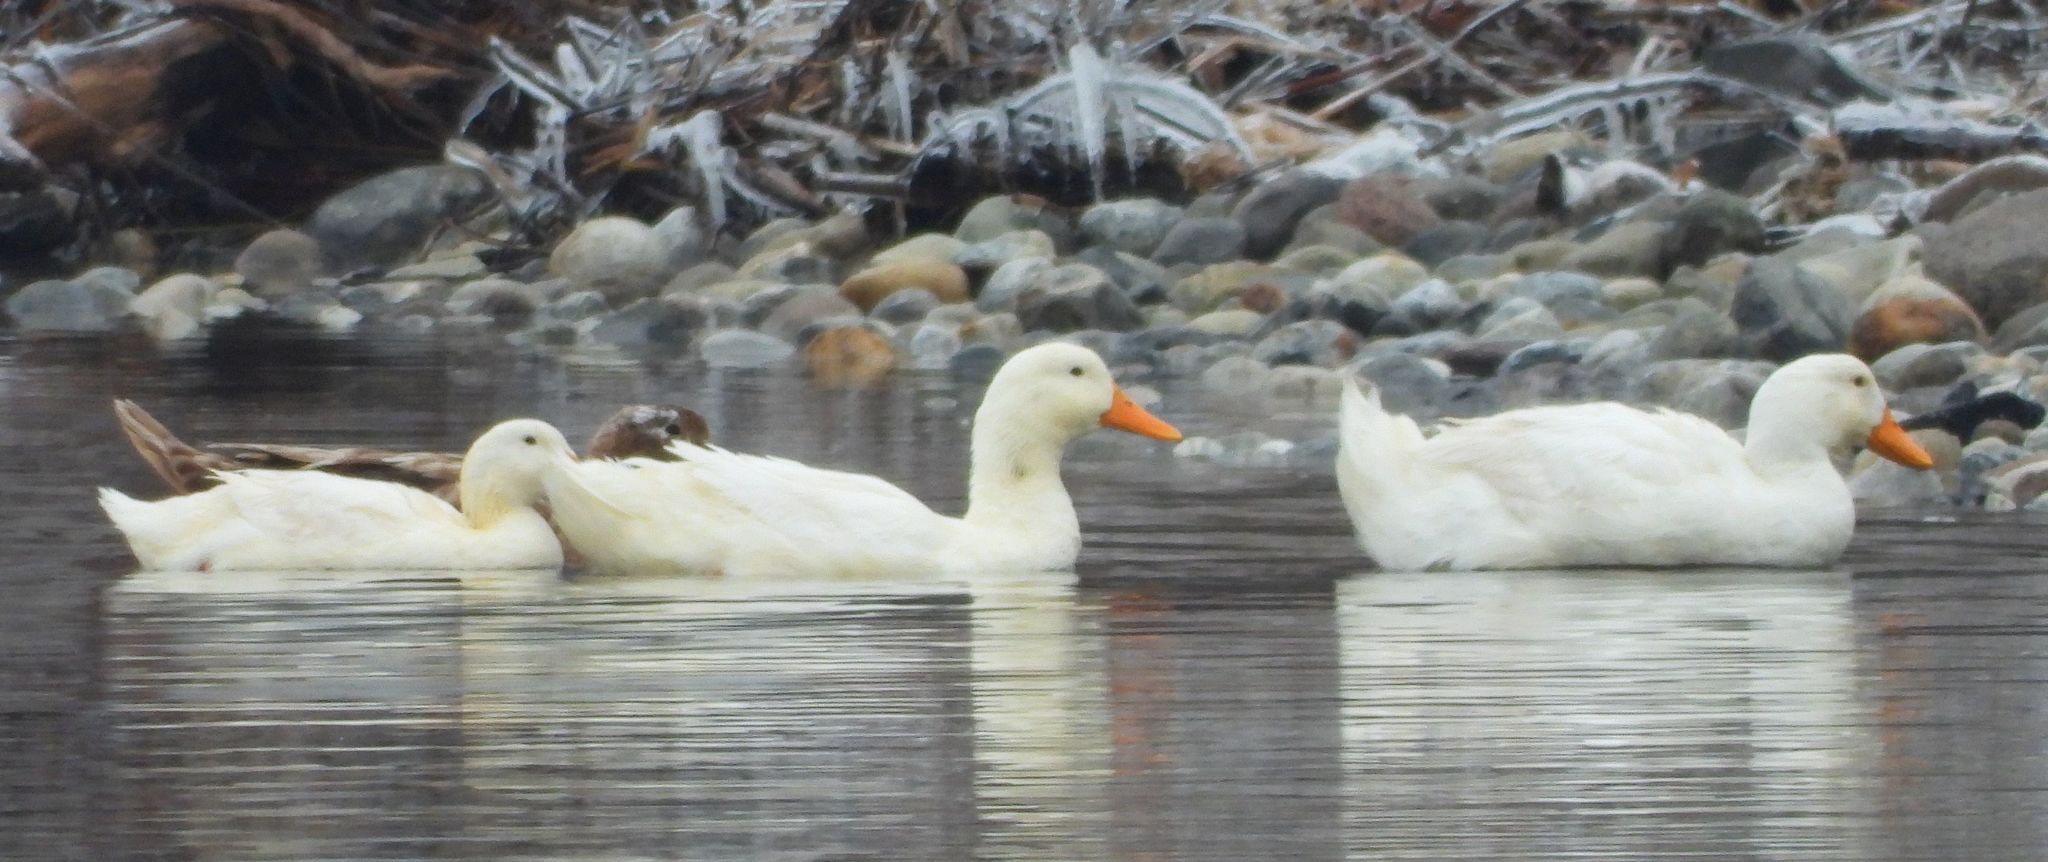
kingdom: Animalia
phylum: Chordata
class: Aves
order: Anseriformes
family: Anatidae
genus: Anas
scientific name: Anas platyrhynchos
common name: Mallard
